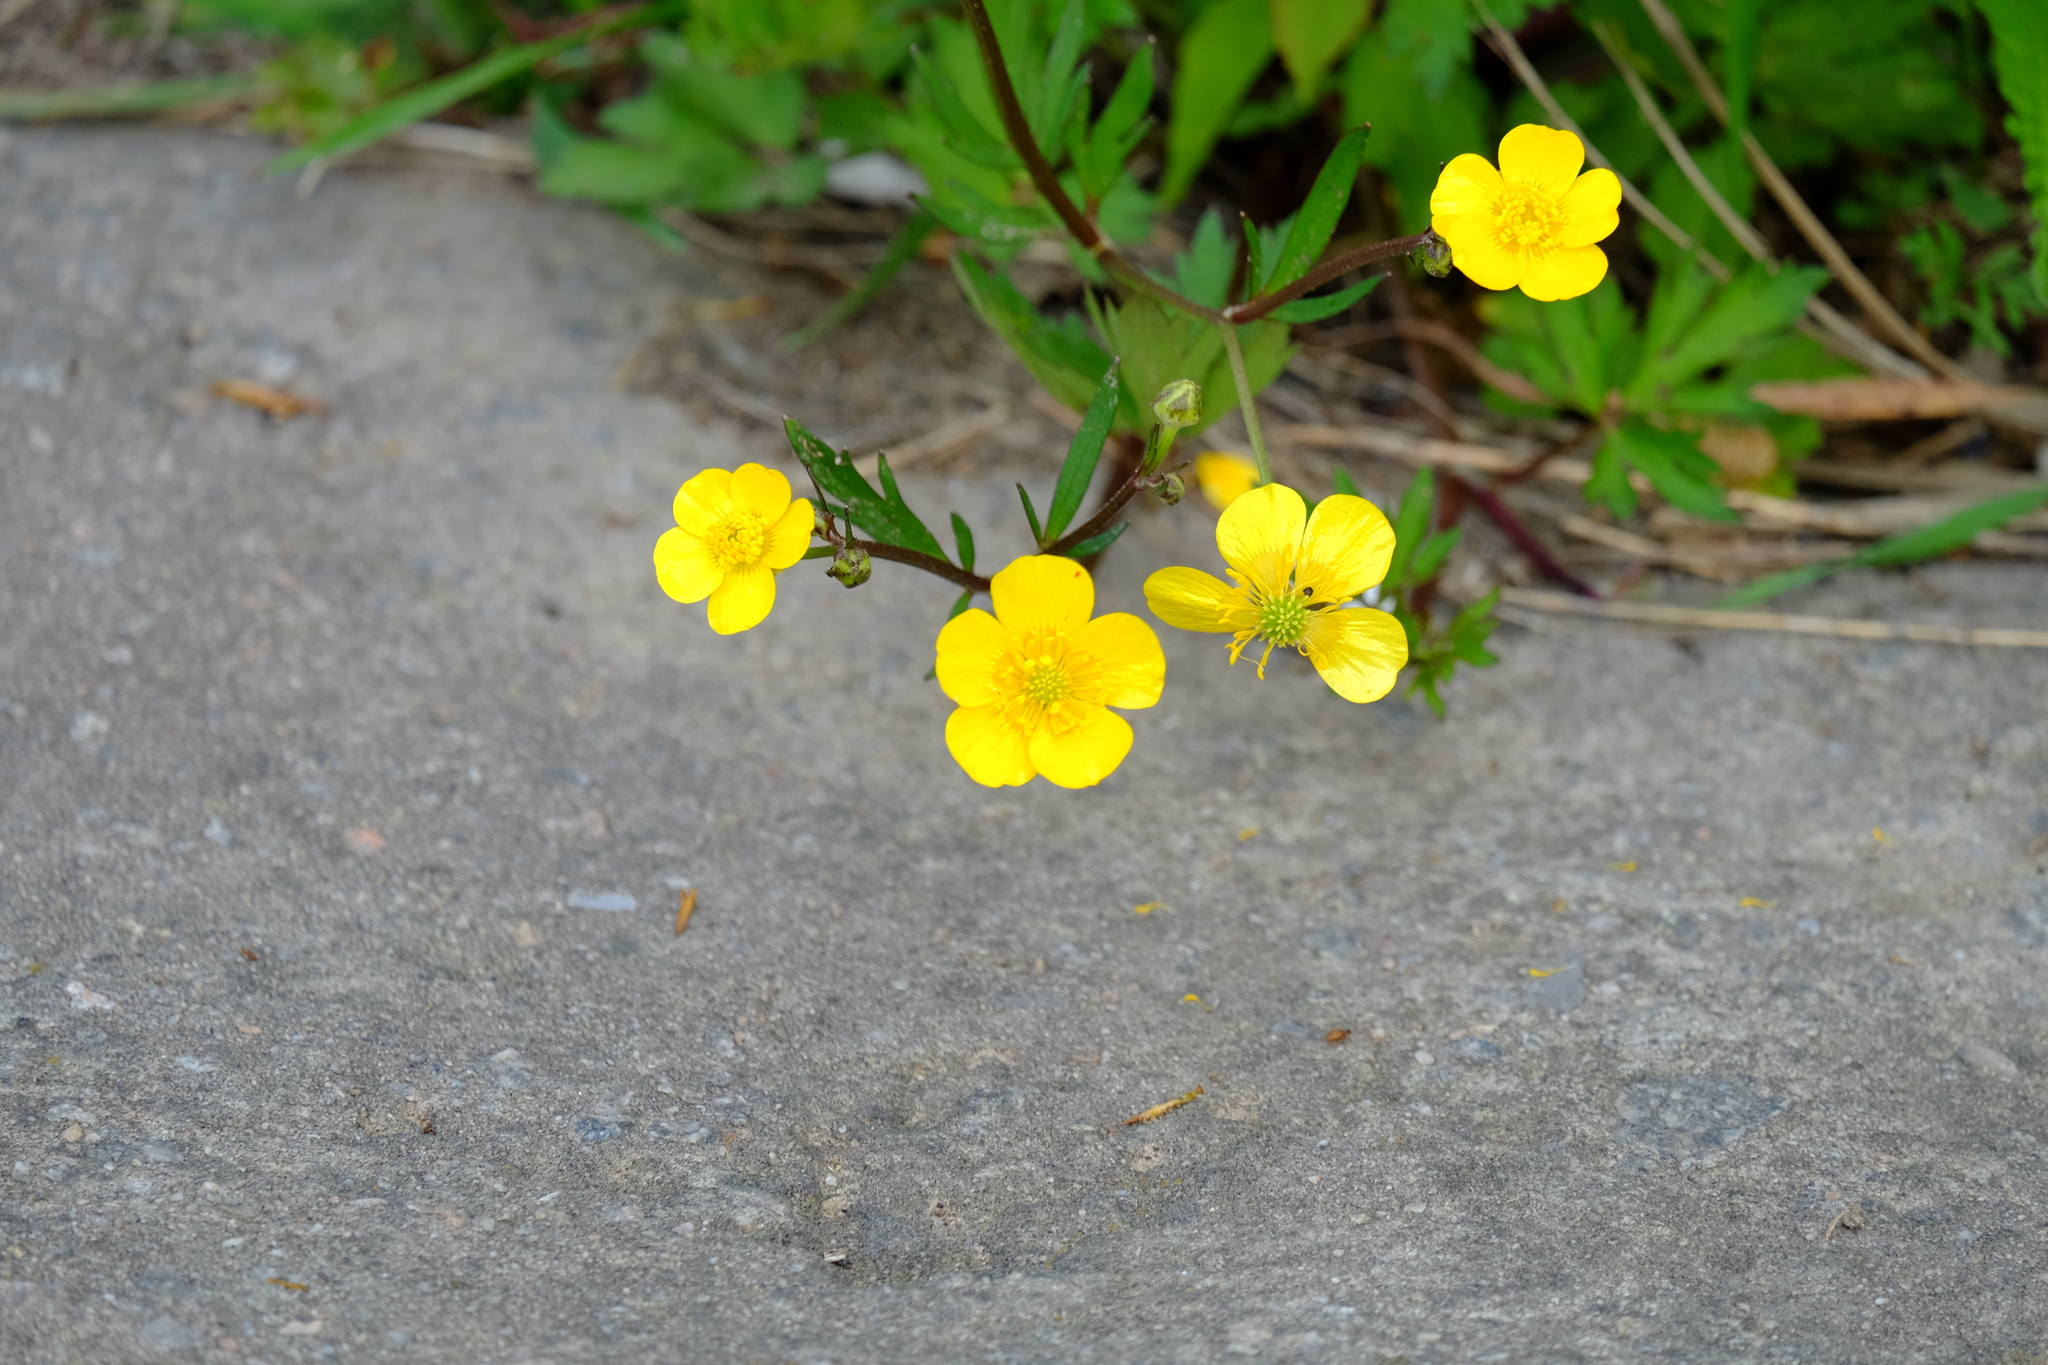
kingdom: Plantae
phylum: Tracheophyta
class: Magnoliopsida
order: Ranunculales
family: Ranunculaceae
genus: Ranunculus
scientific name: Ranunculus repens
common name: Creeping buttercup
